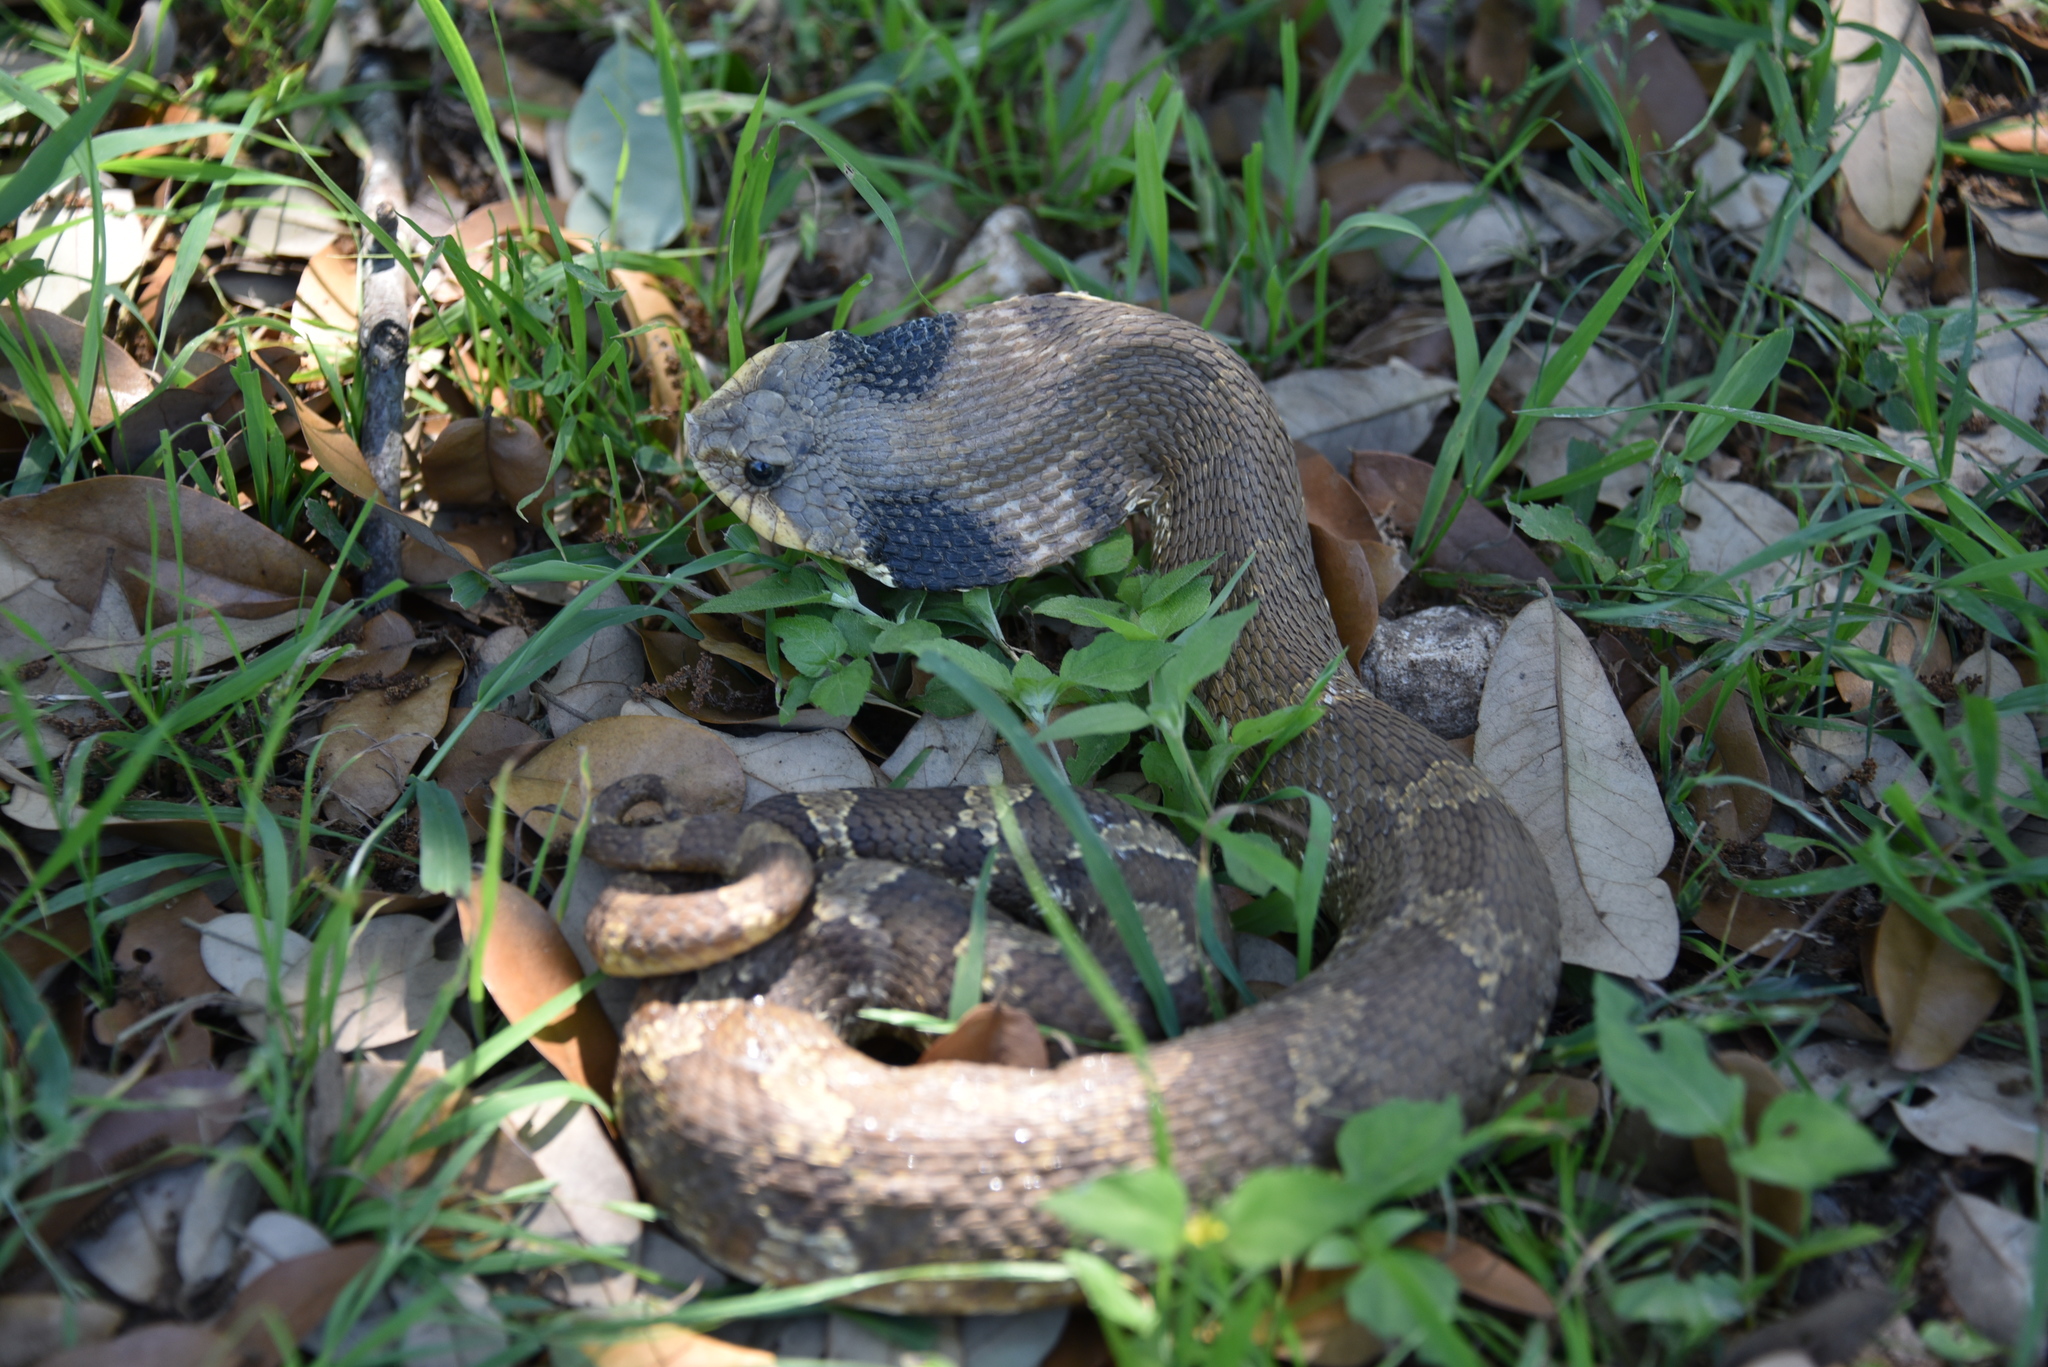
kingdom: Animalia
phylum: Chordata
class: Squamata
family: Colubridae
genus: Heterodon
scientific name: Heterodon platirhinos
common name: Eastern hognose snake
